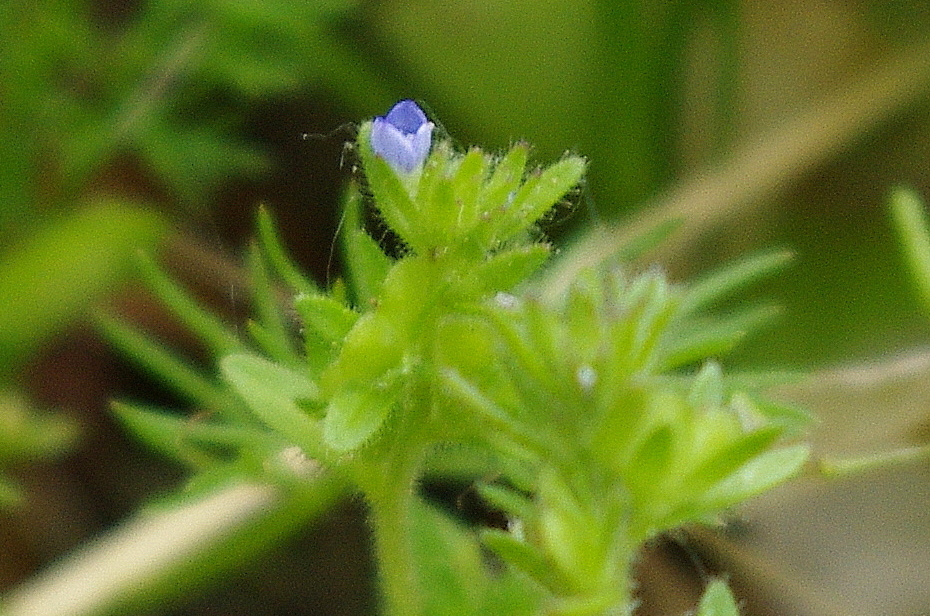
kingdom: Plantae
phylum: Tracheophyta
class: Magnoliopsida
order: Lamiales
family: Plantaginaceae
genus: Veronica
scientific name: Veronica arvensis
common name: Corn speedwell
